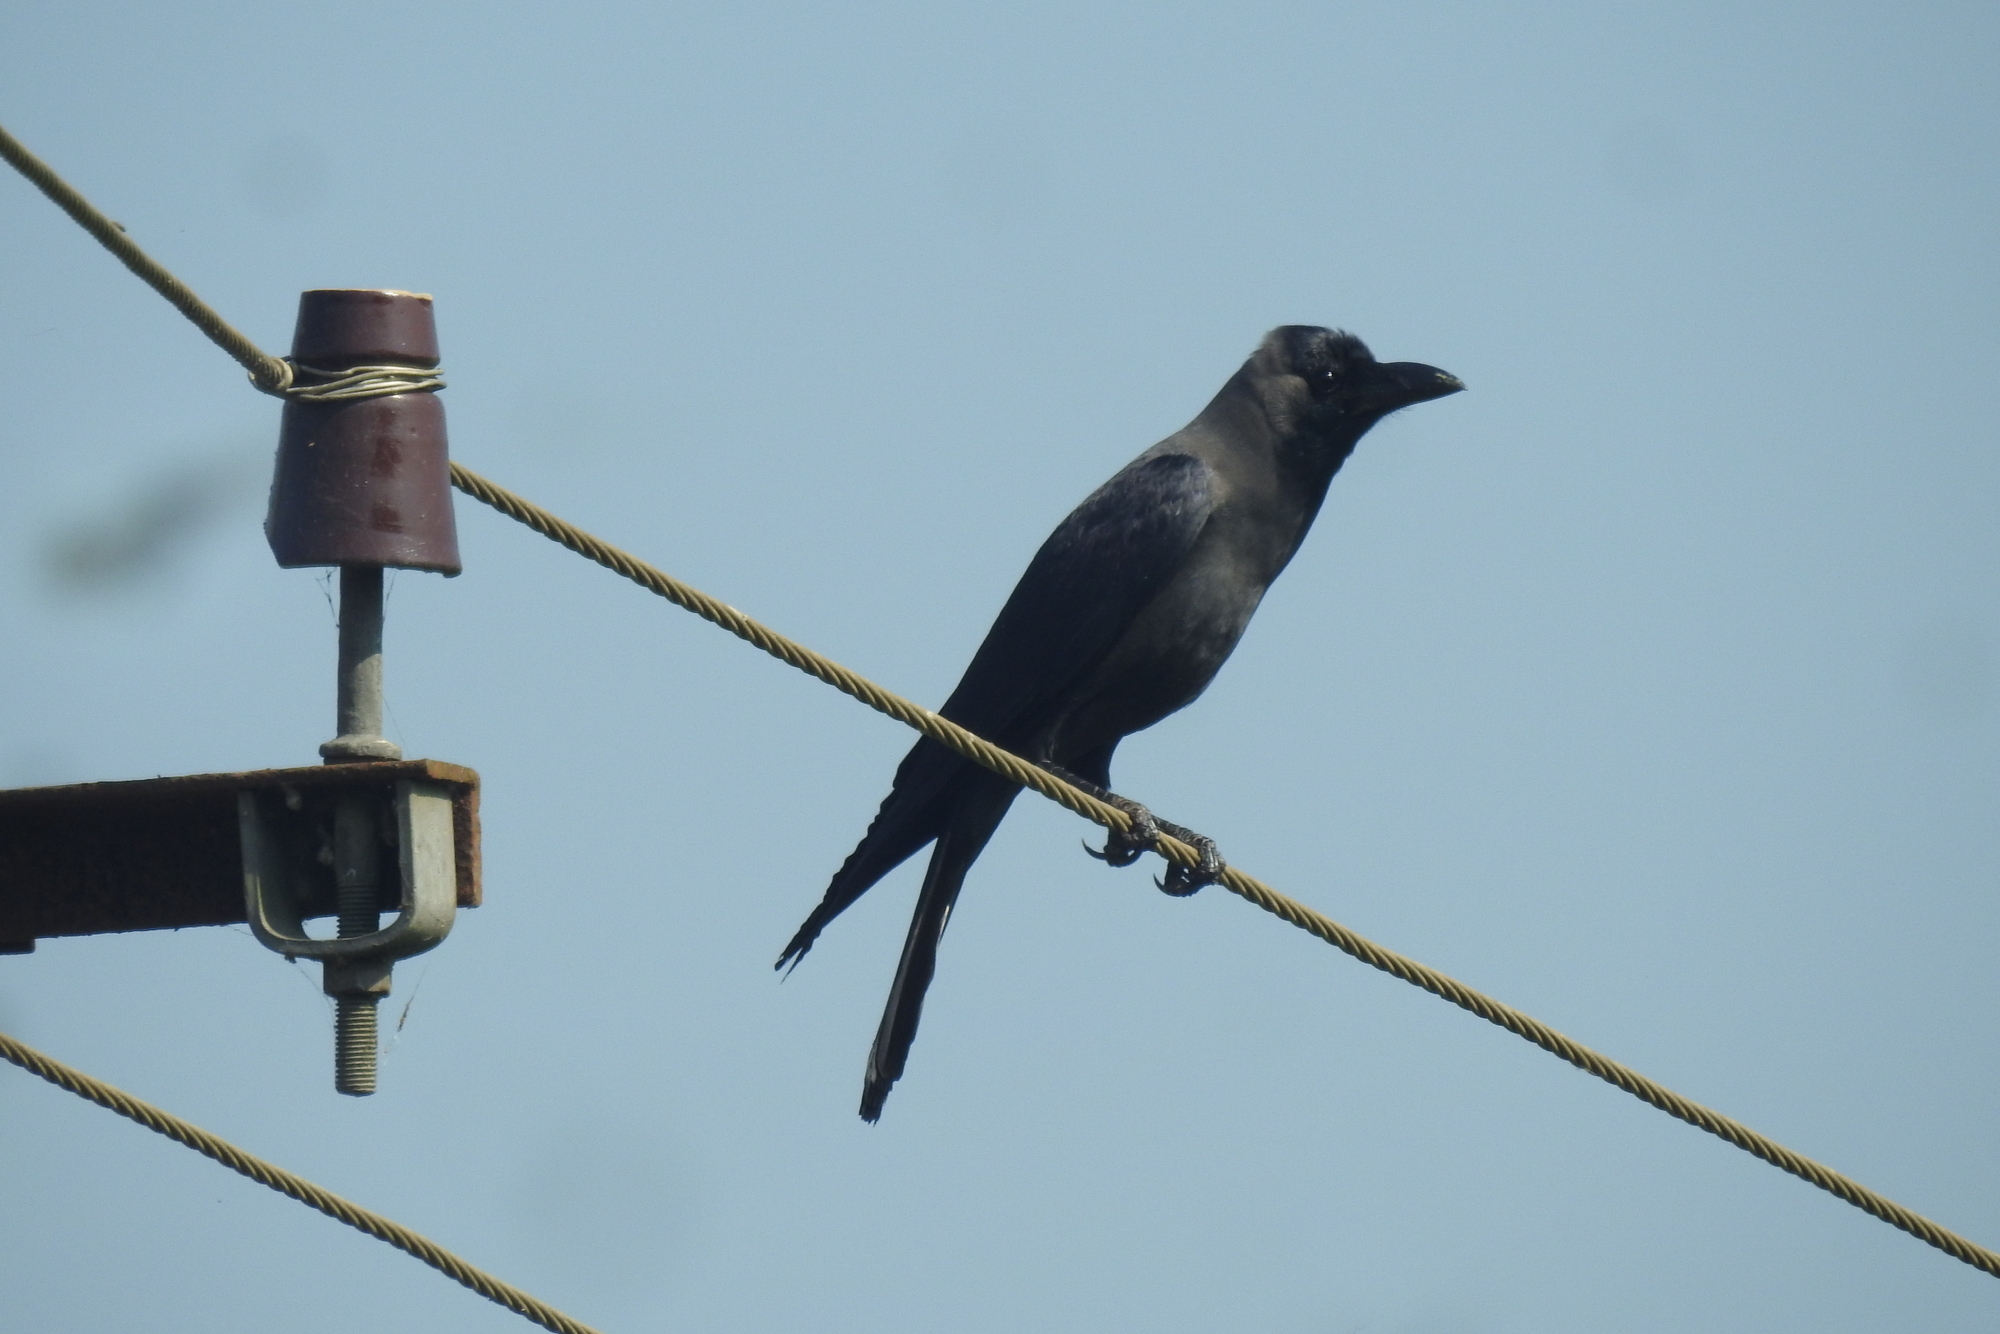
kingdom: Animalia
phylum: Chordata
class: Aves
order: Passeriformes
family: Corvidae
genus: Corvus
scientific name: Corvus splendens
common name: House crow
